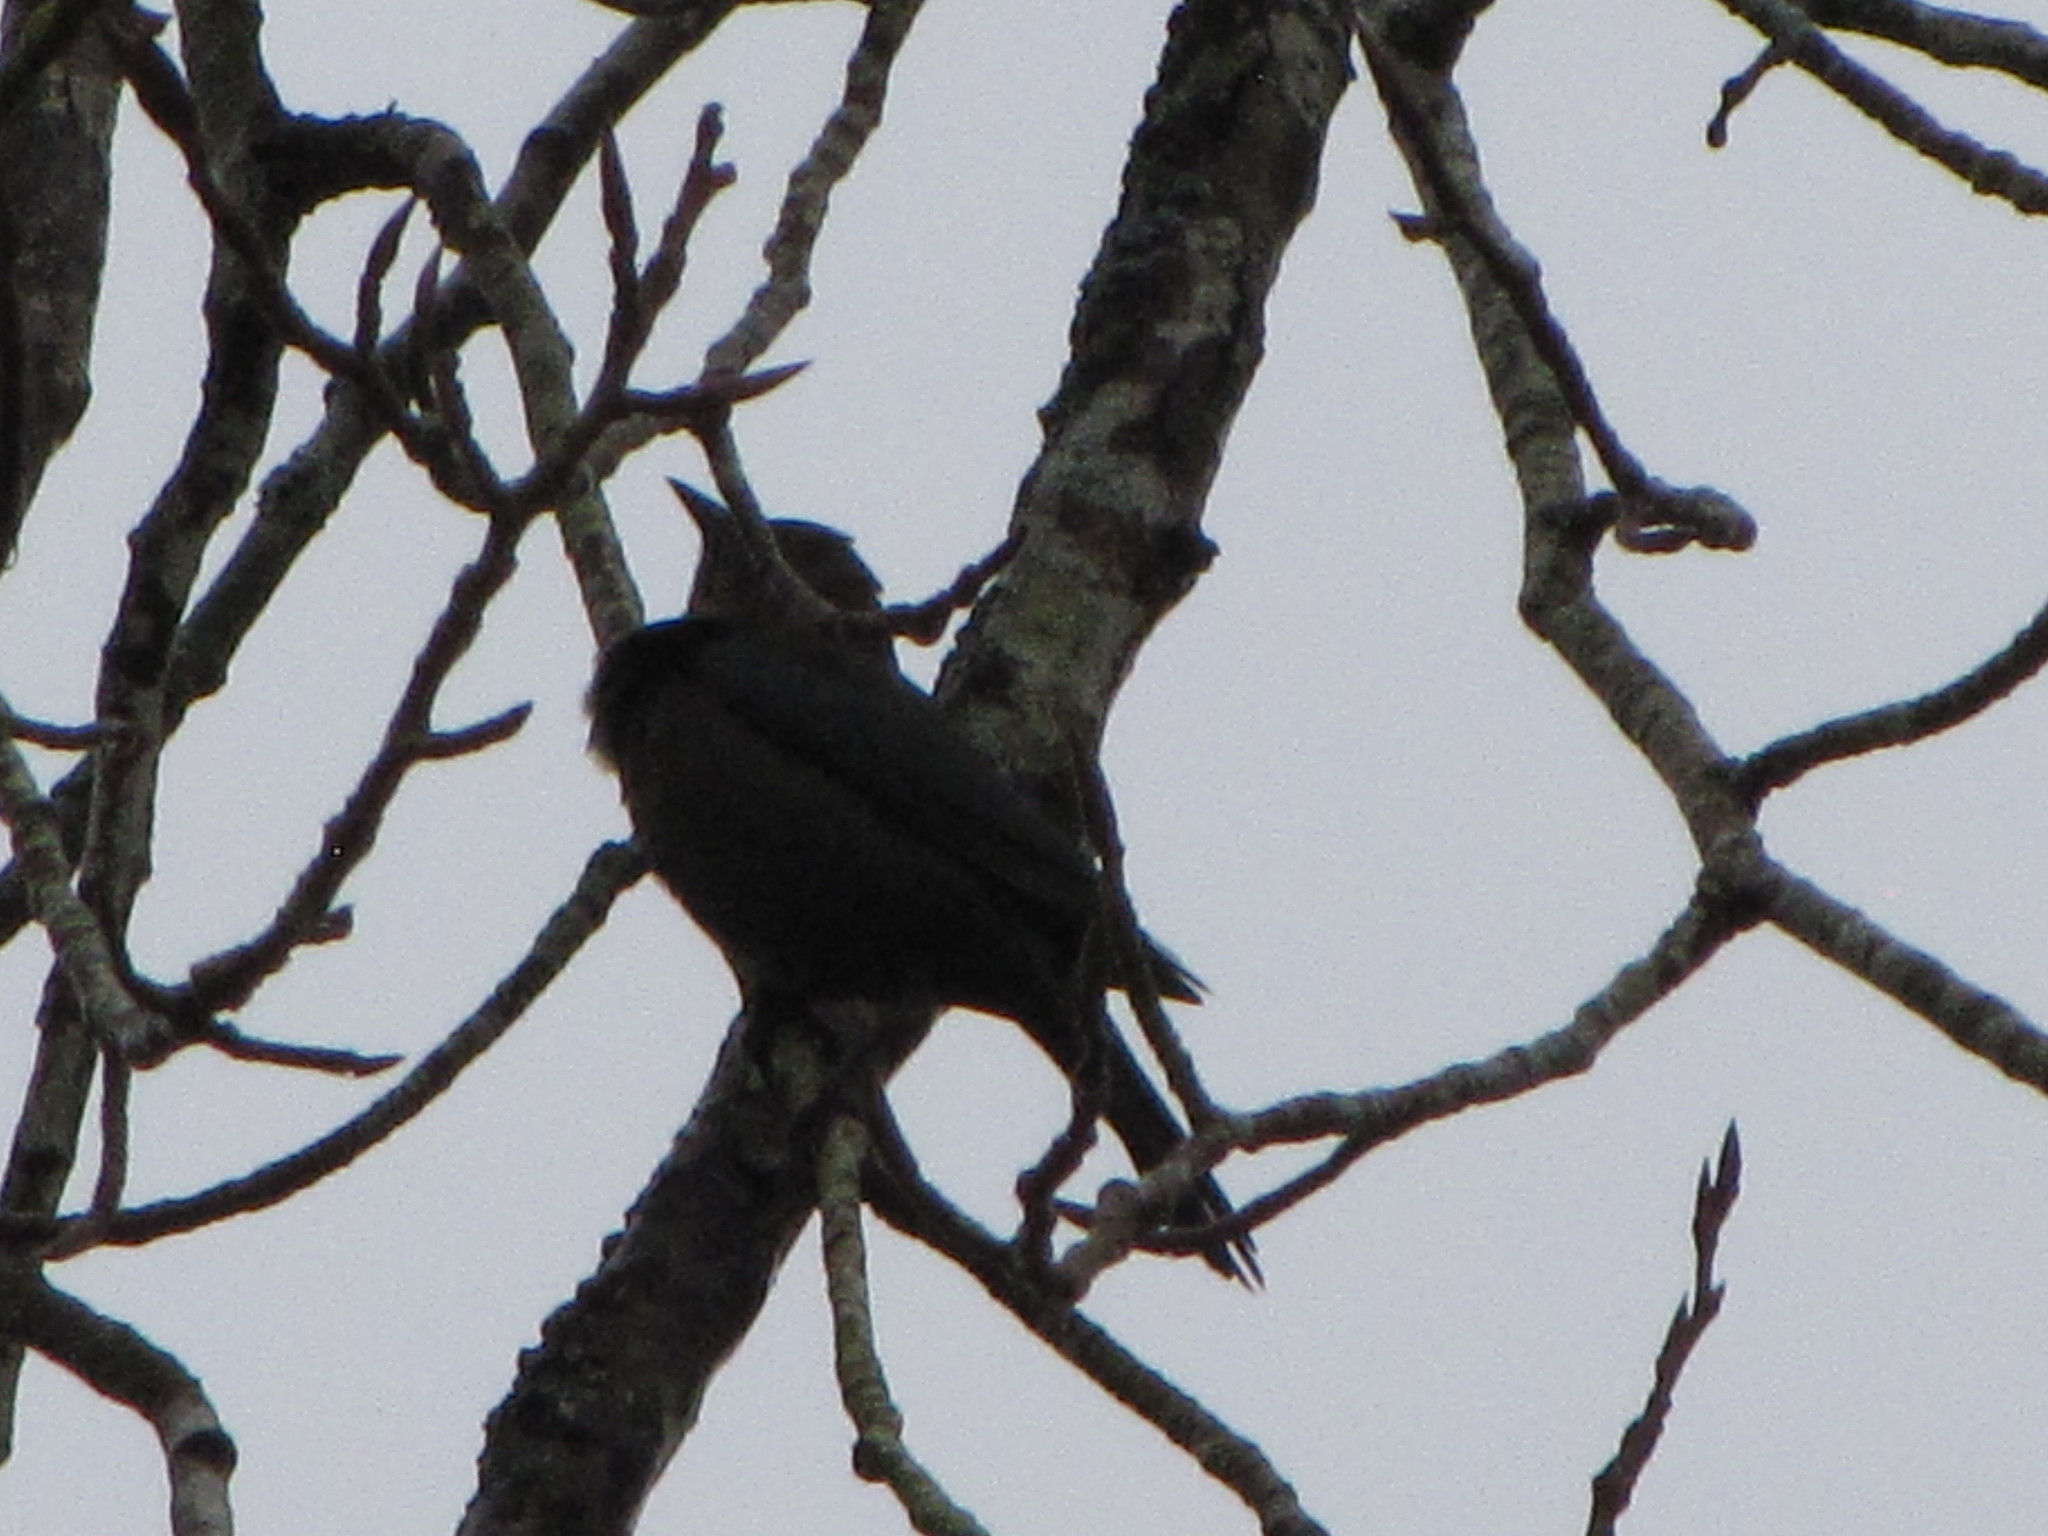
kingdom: Animalia
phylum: Chordata
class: Aves
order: Passeriformes
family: Icteridae
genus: Euphagus
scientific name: Euphagus cyanocephalus
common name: Brewer's blackbird
